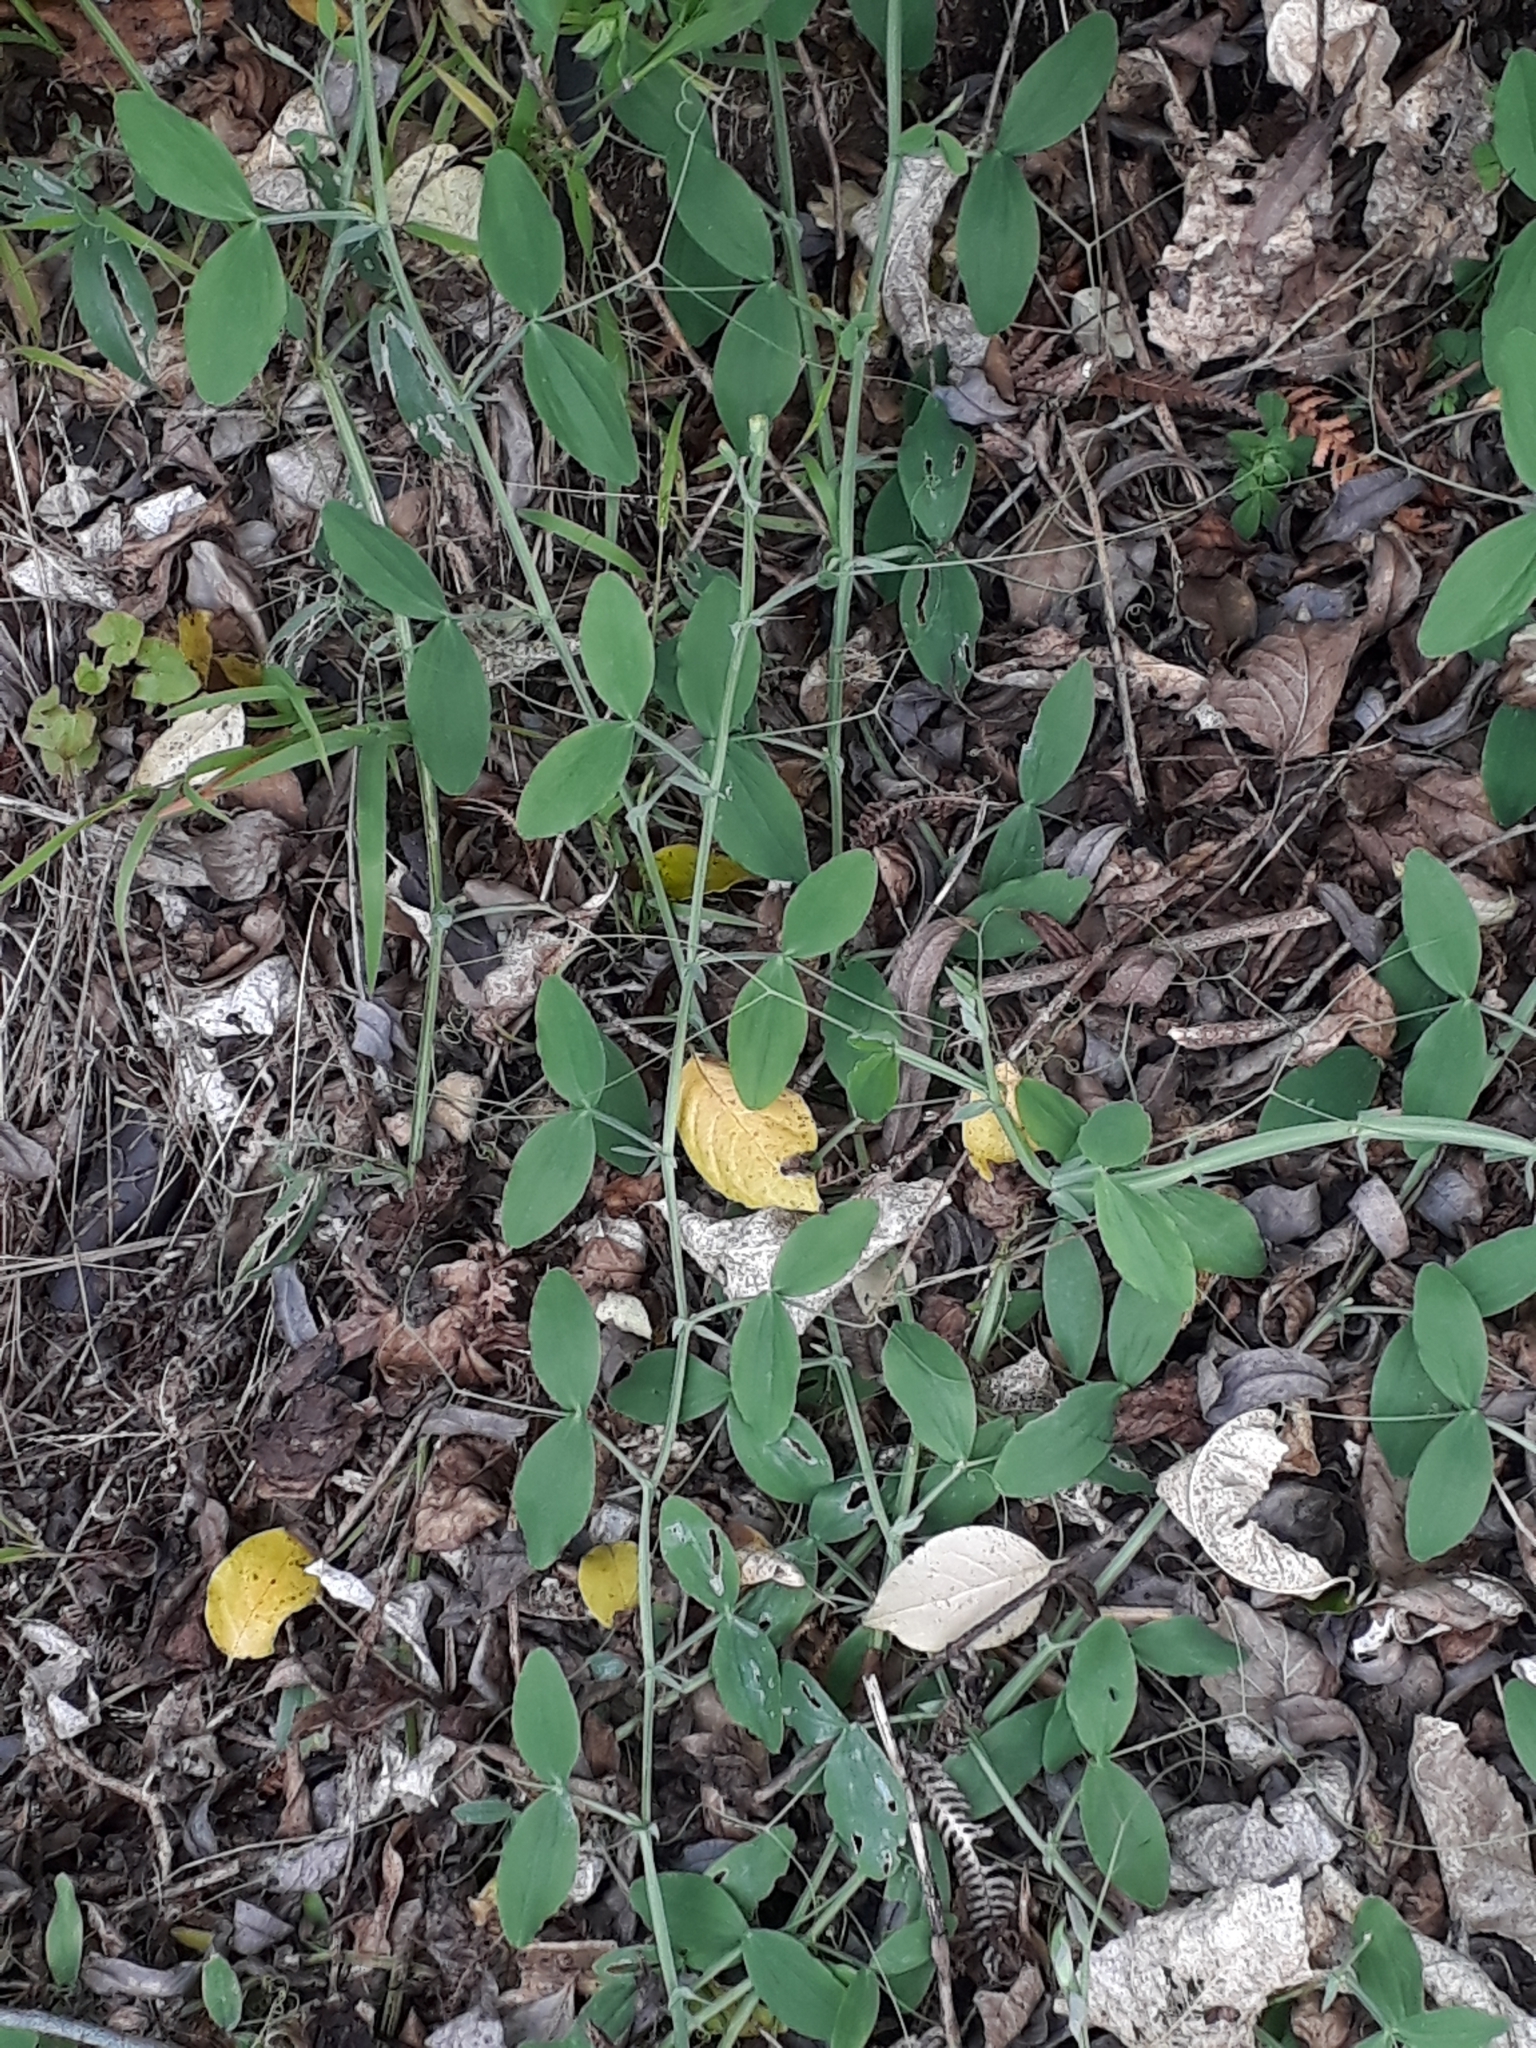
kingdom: Plantae
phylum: Tracheophyta
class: Magnoliopsida
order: Fabales
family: Fabaceae
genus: Lathyrus
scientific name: Lathyrus
